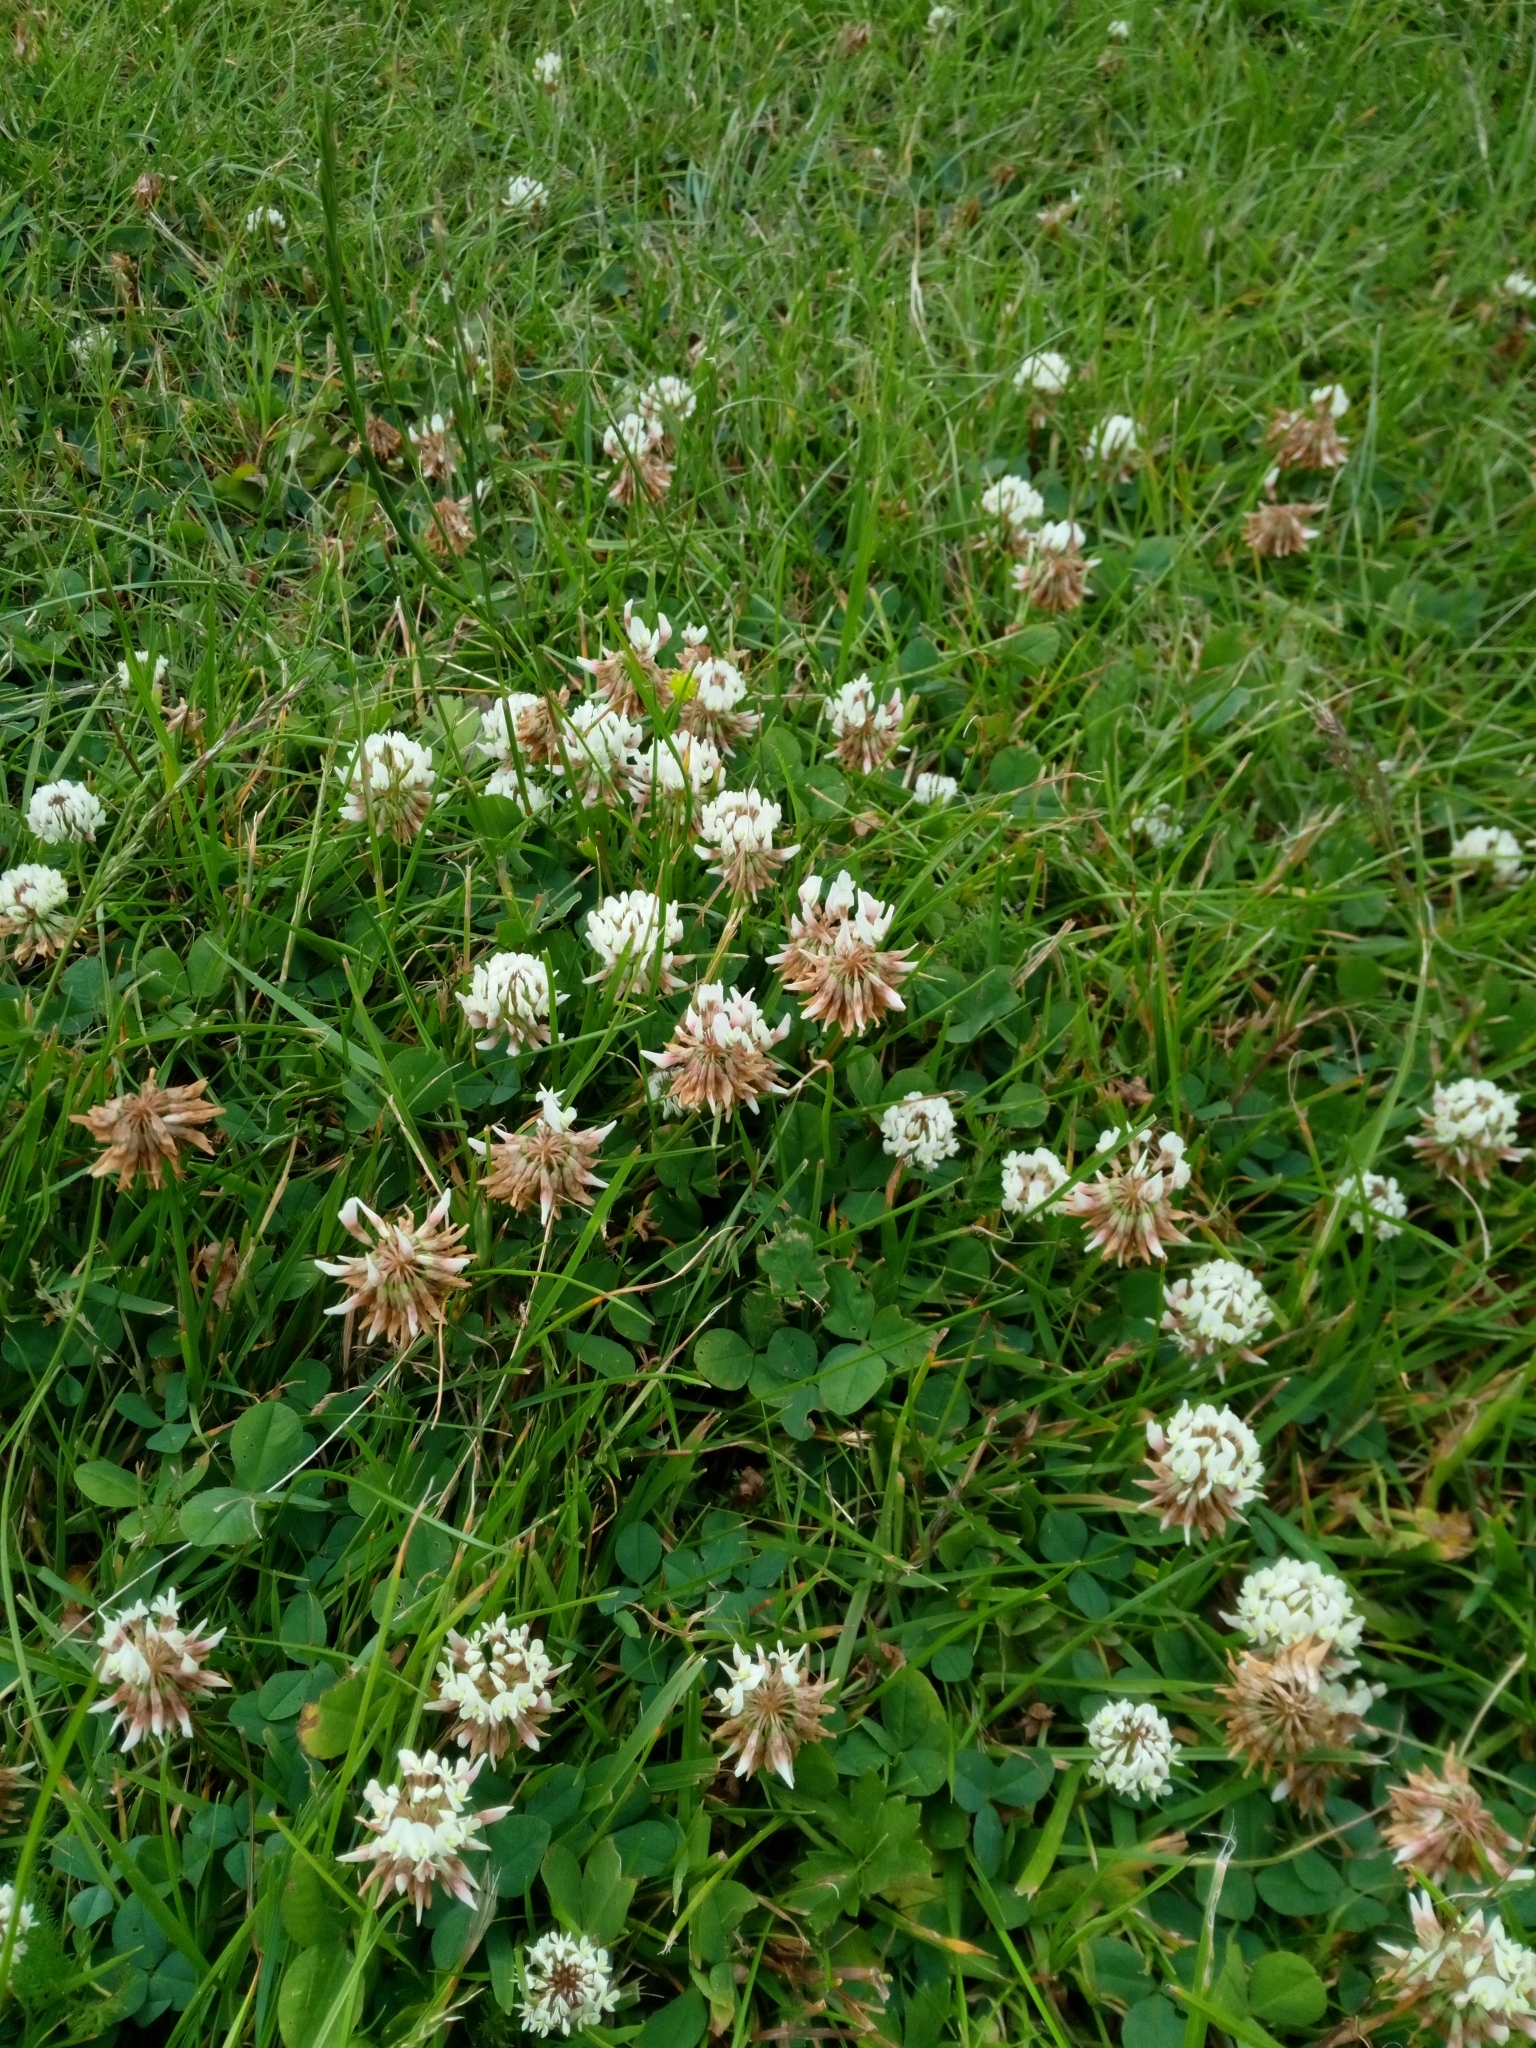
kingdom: Plantae
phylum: Tracheophyta
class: Magnoliopsida
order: Fabales
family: Fabaceae
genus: Trifolium
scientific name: Trifolium repens
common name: White clover
